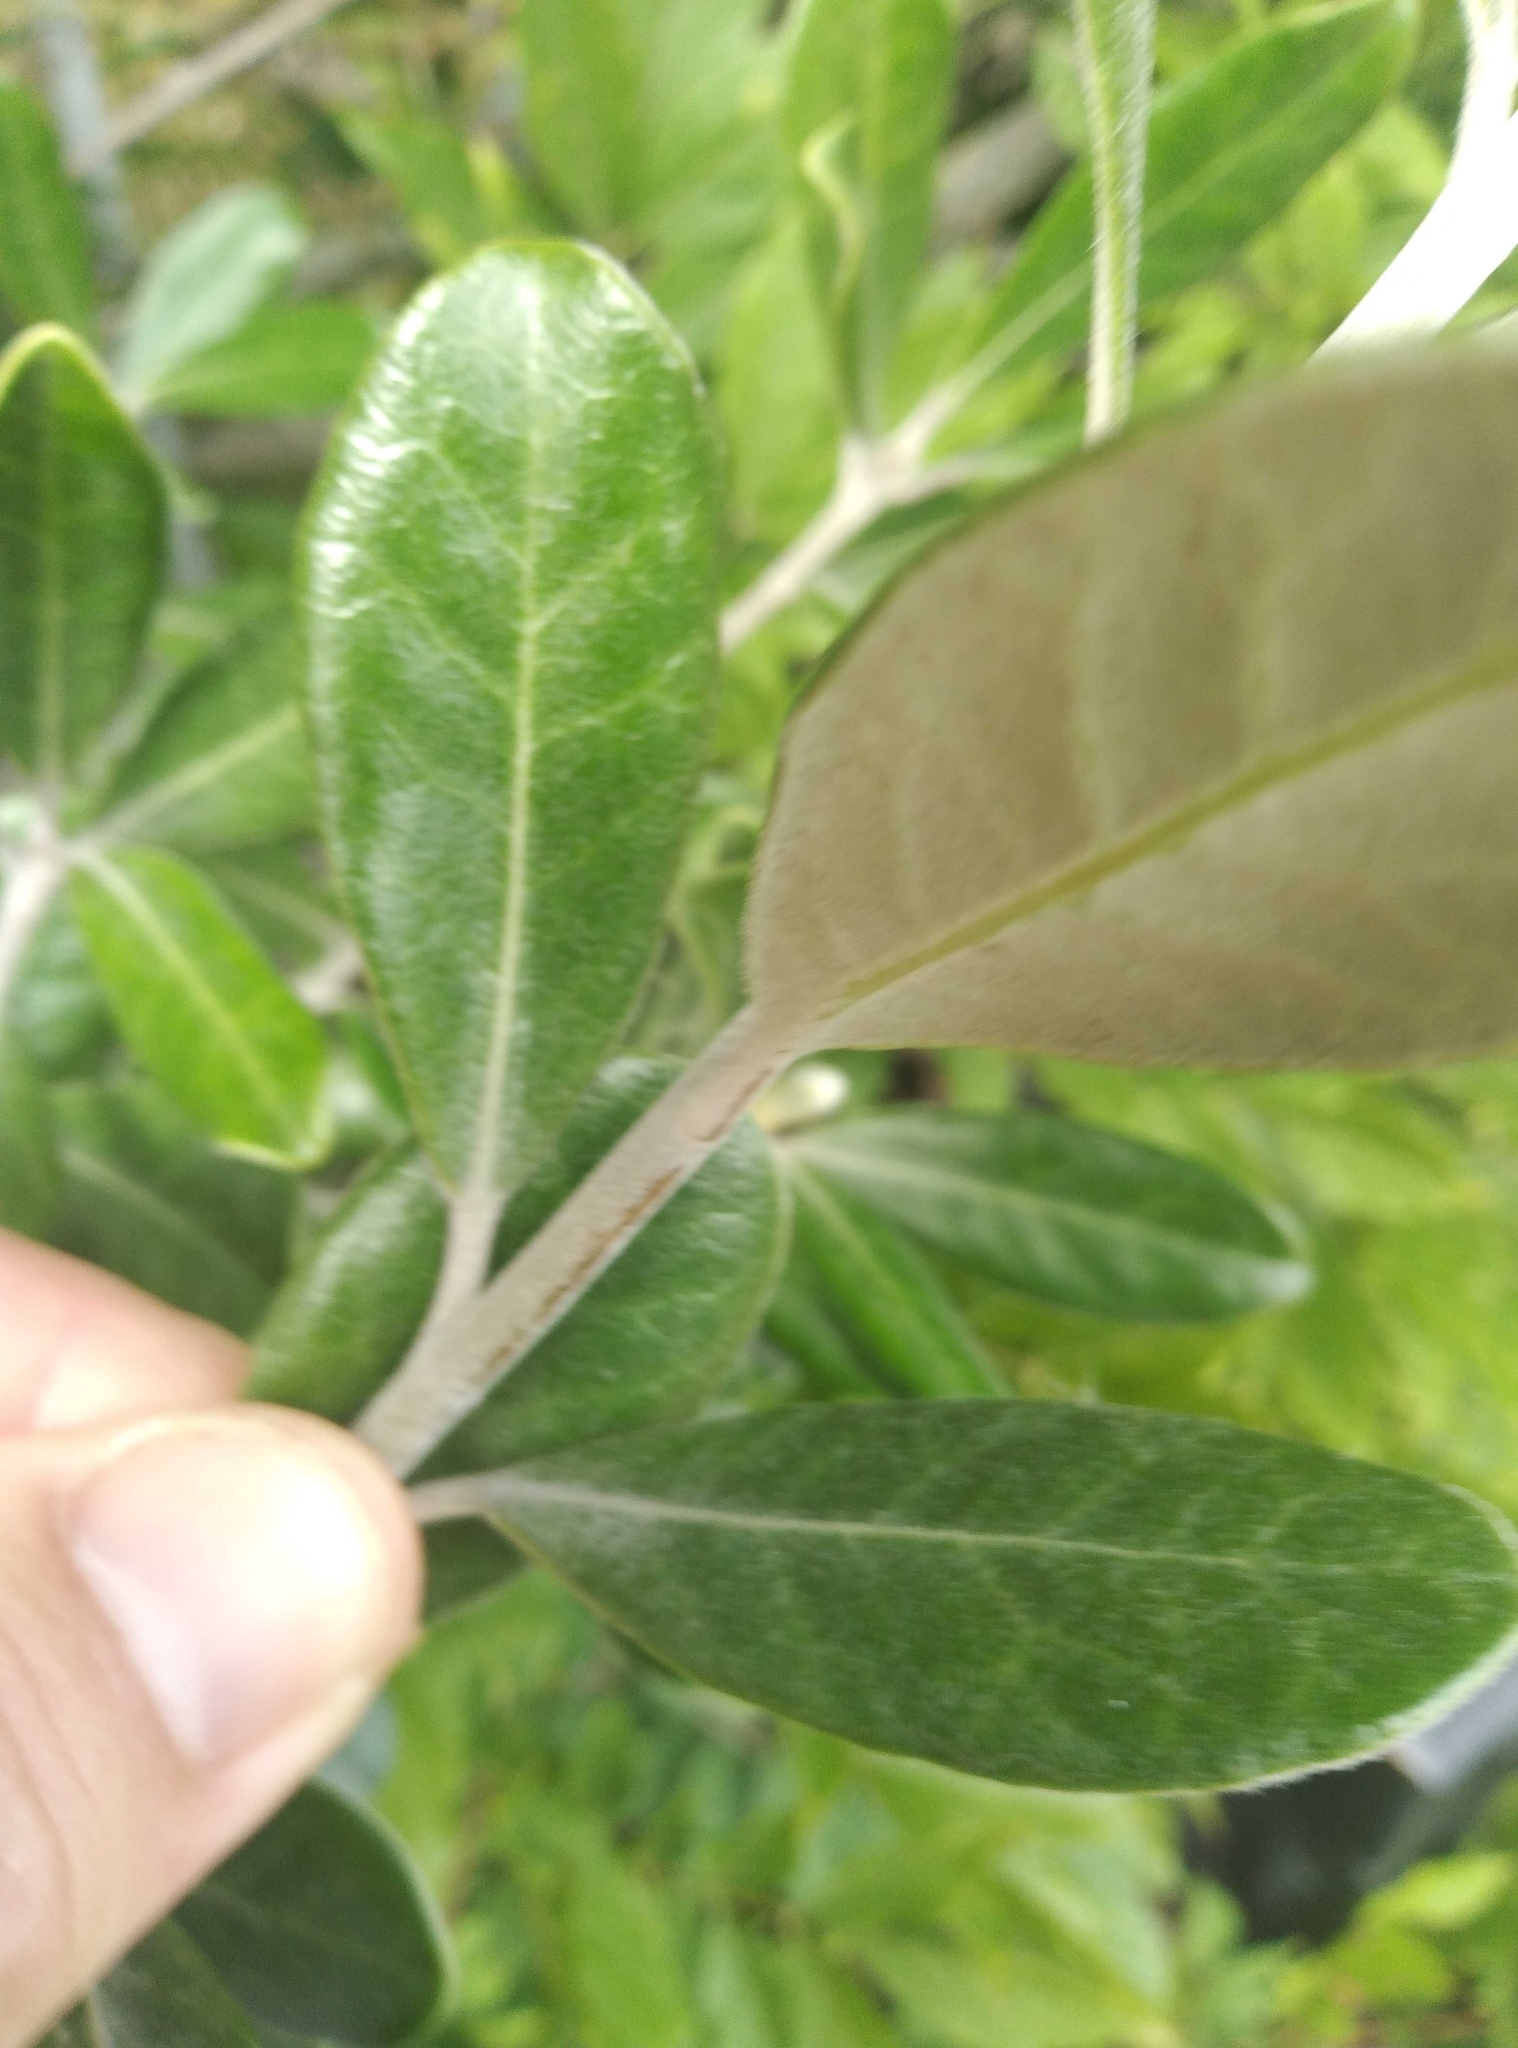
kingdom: Plantae
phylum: Tracheophyta
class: Magnoliopsida
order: Apiales
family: Pittosporaceae
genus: Pittosporum
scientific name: Pittosporum crassifolium
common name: Karo
